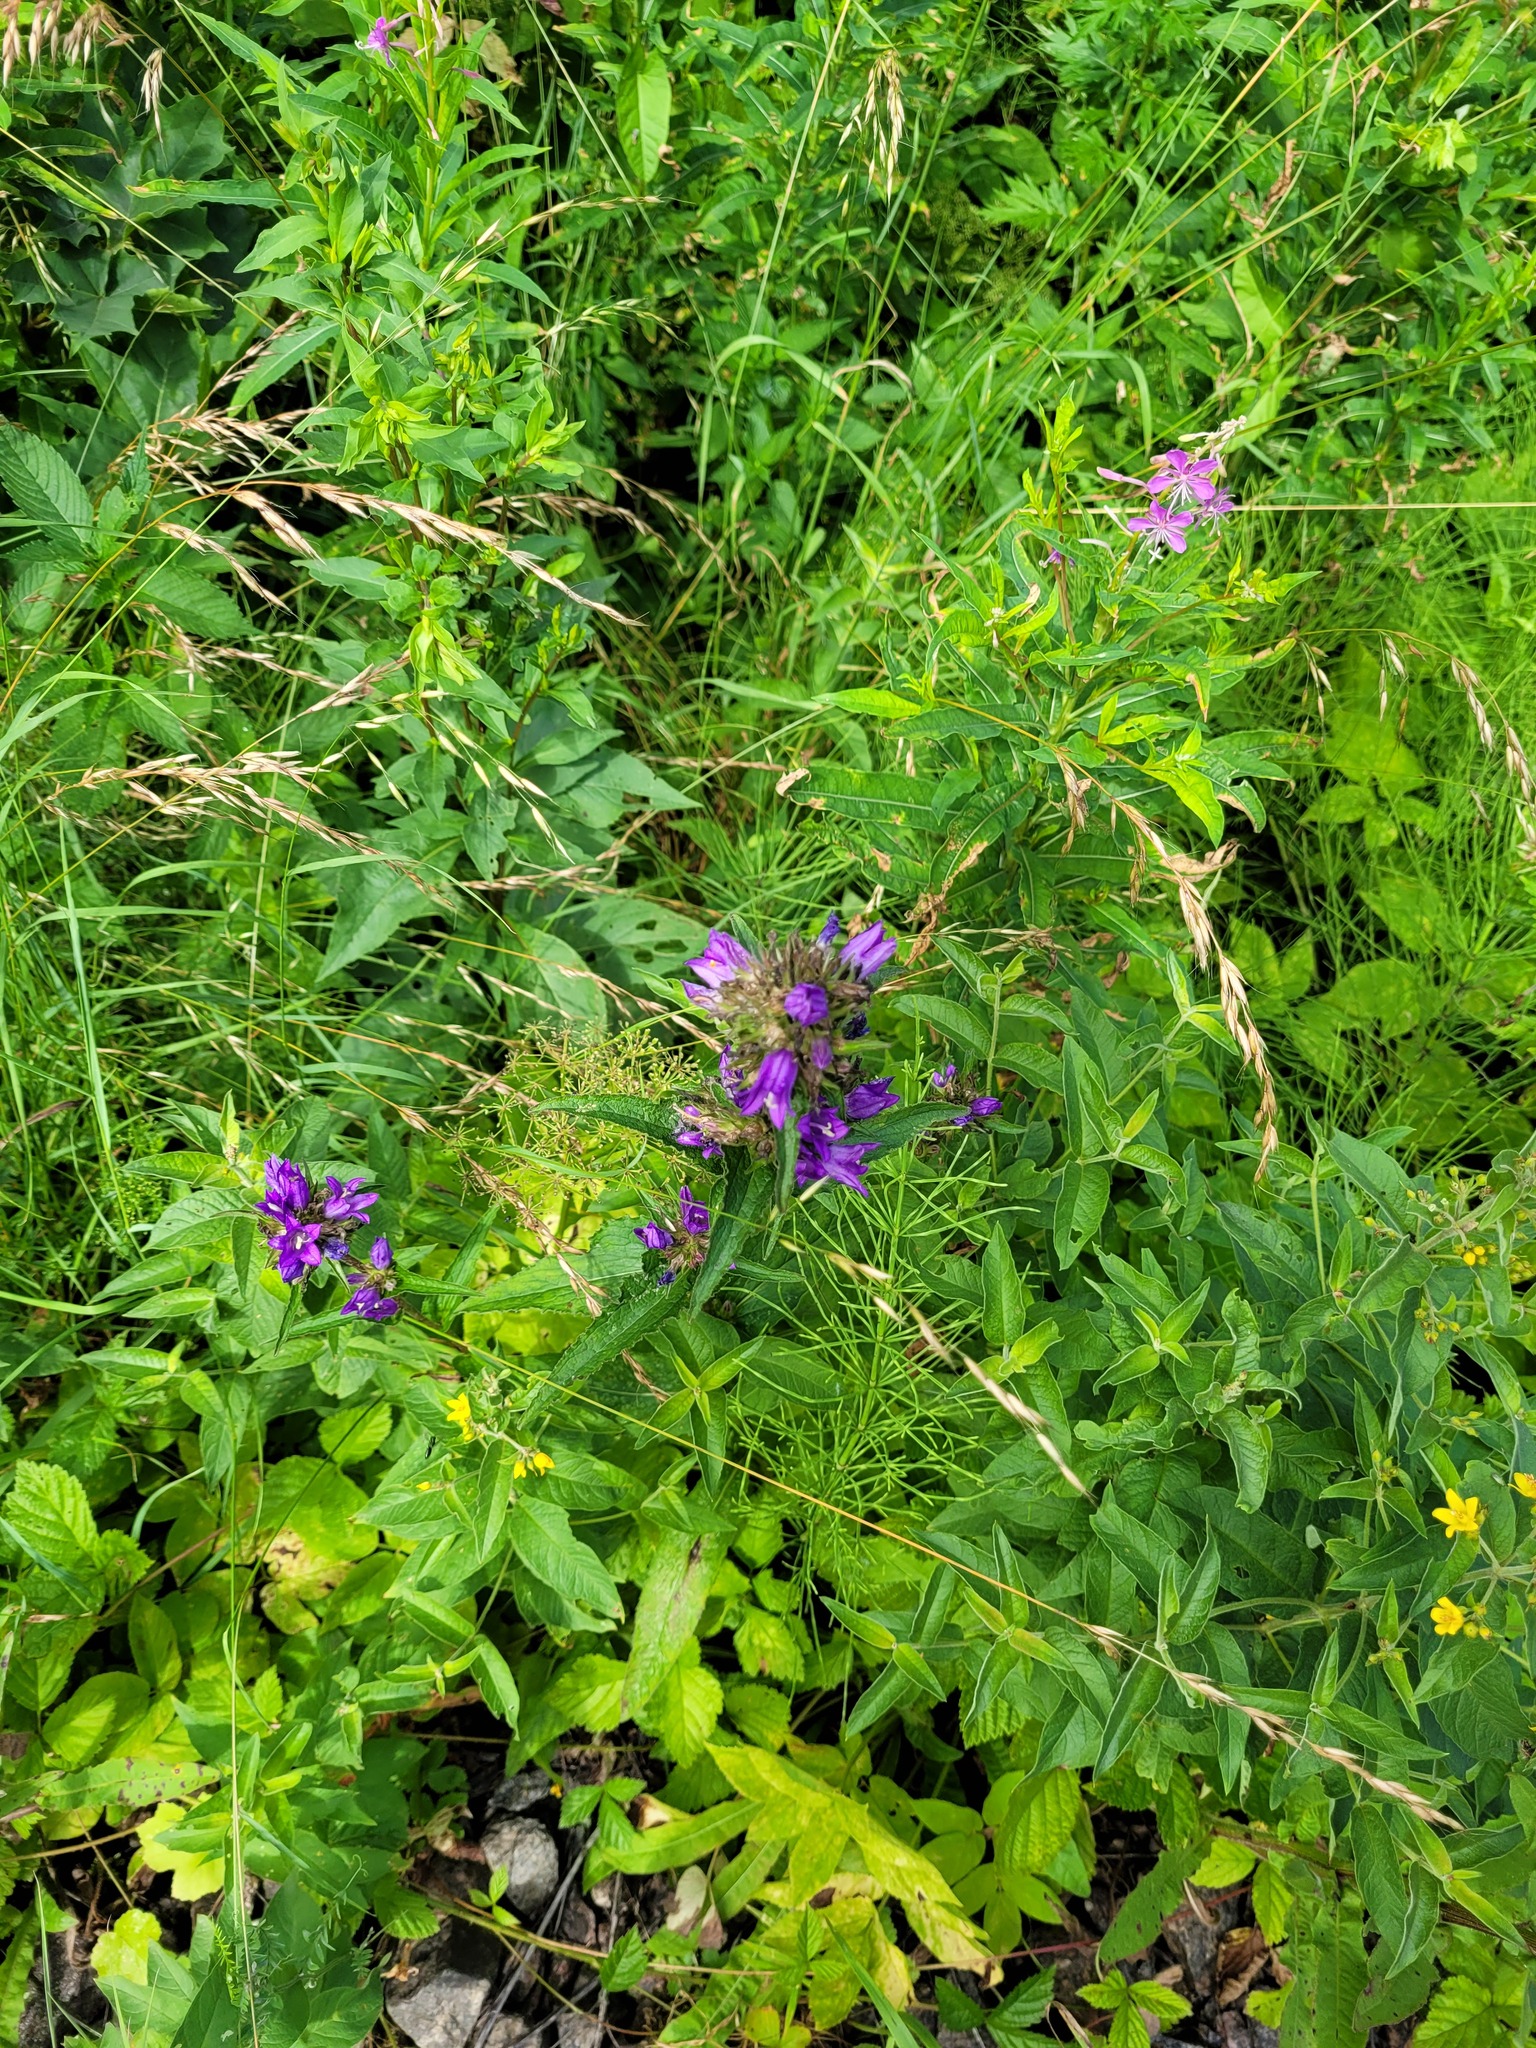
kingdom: Plantae
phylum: Tracheophyta
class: Magnoliopsida
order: Asterales
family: Campanulaceae
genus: Campanula
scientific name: Campanula glomerata
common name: Clustered bellflower
